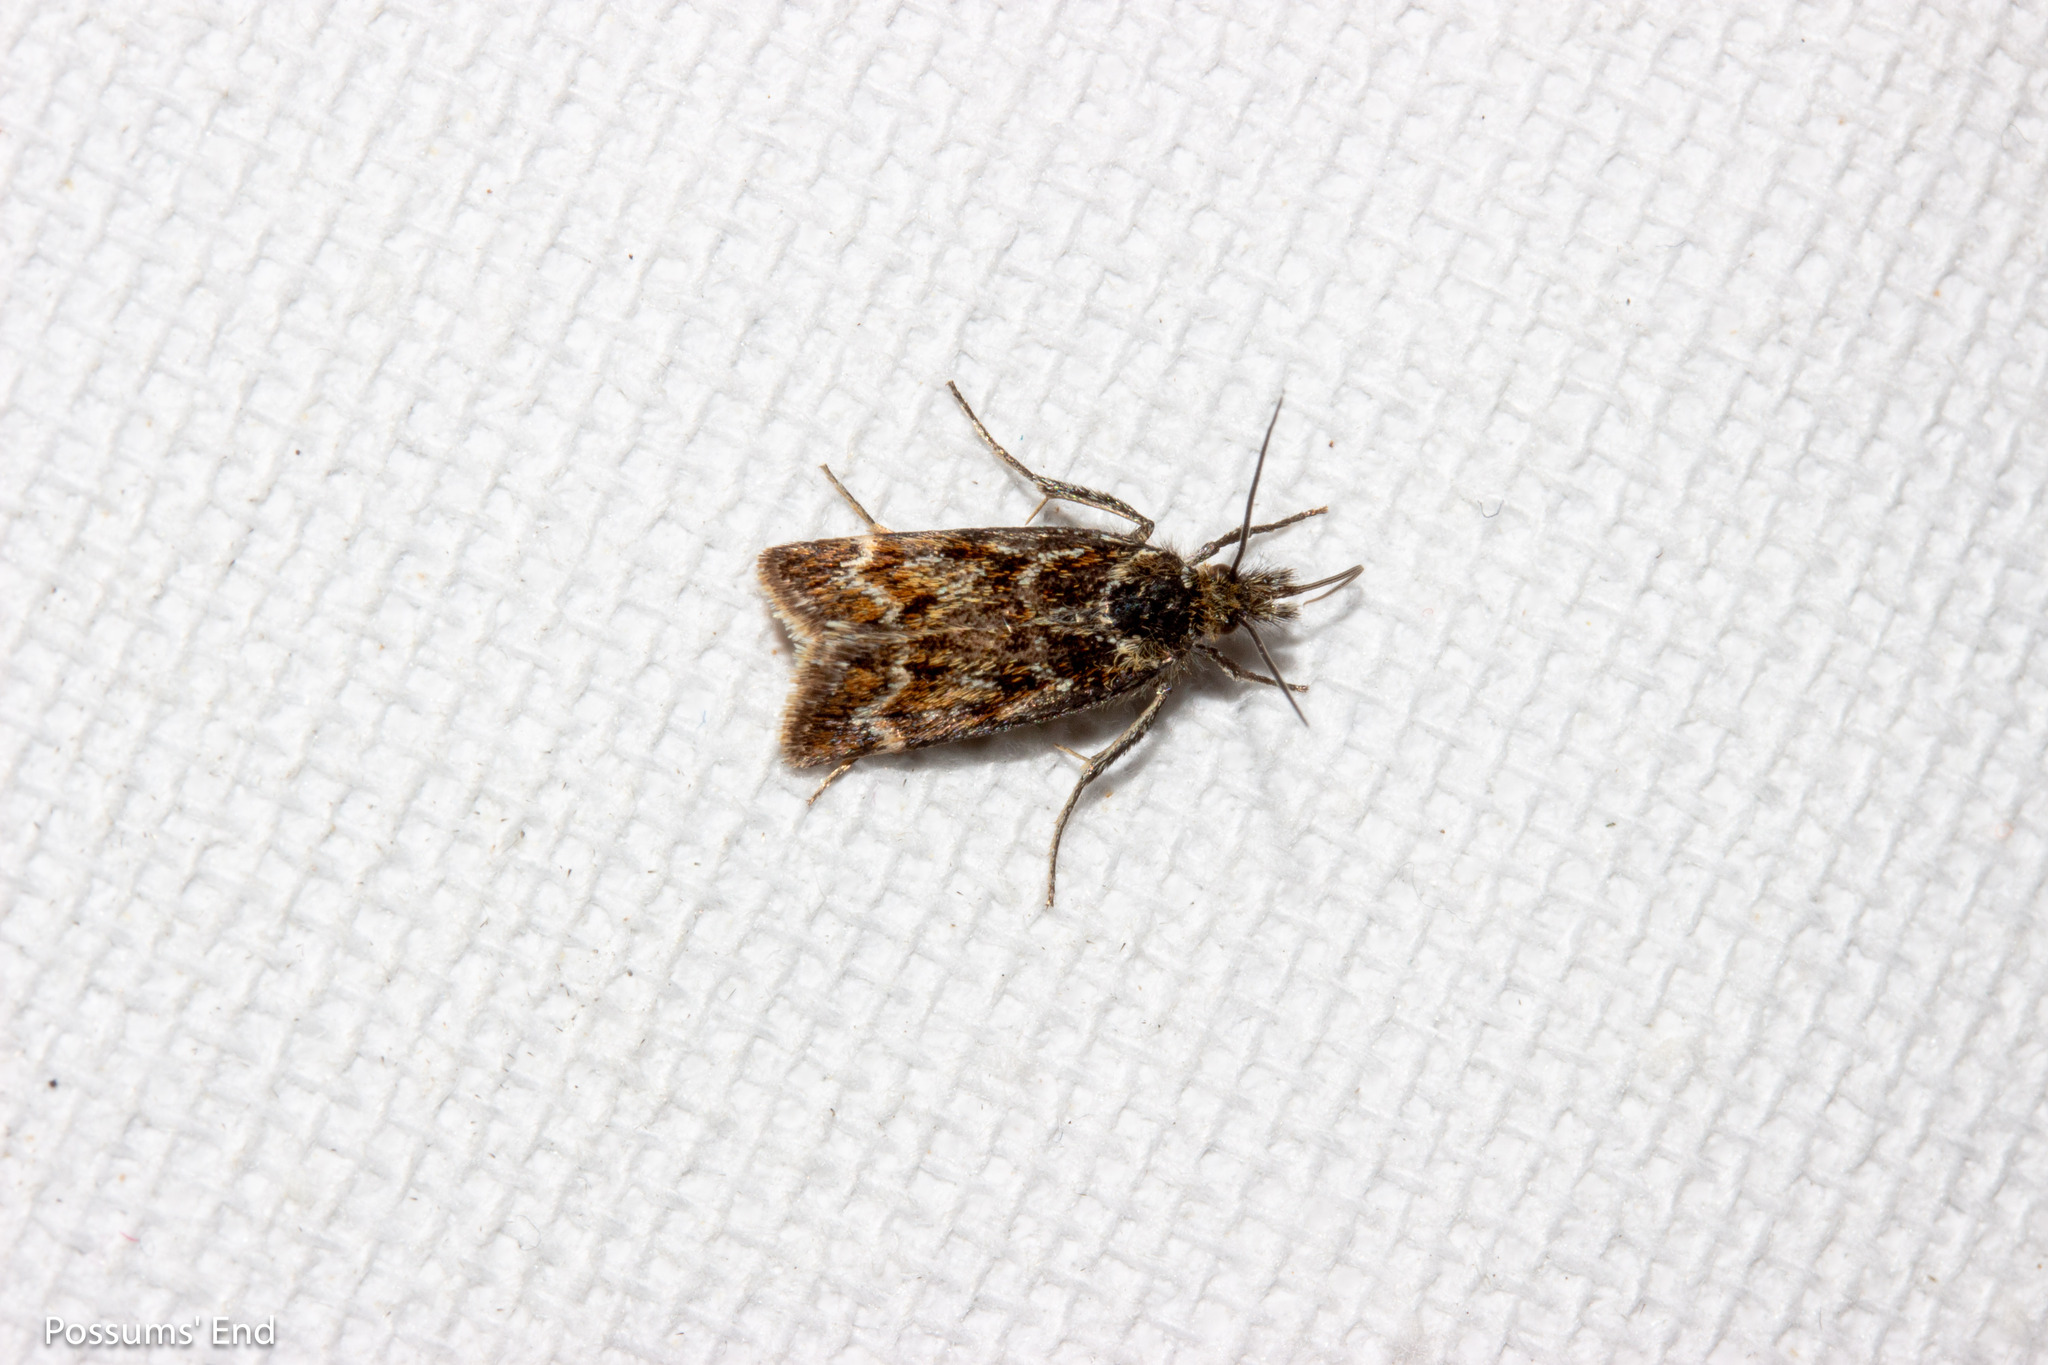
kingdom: Animalia
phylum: Arthropoda
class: Insecta
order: Lepidoptera
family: Crambidae
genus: Orocrambus
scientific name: Orocrambus scoparioides
